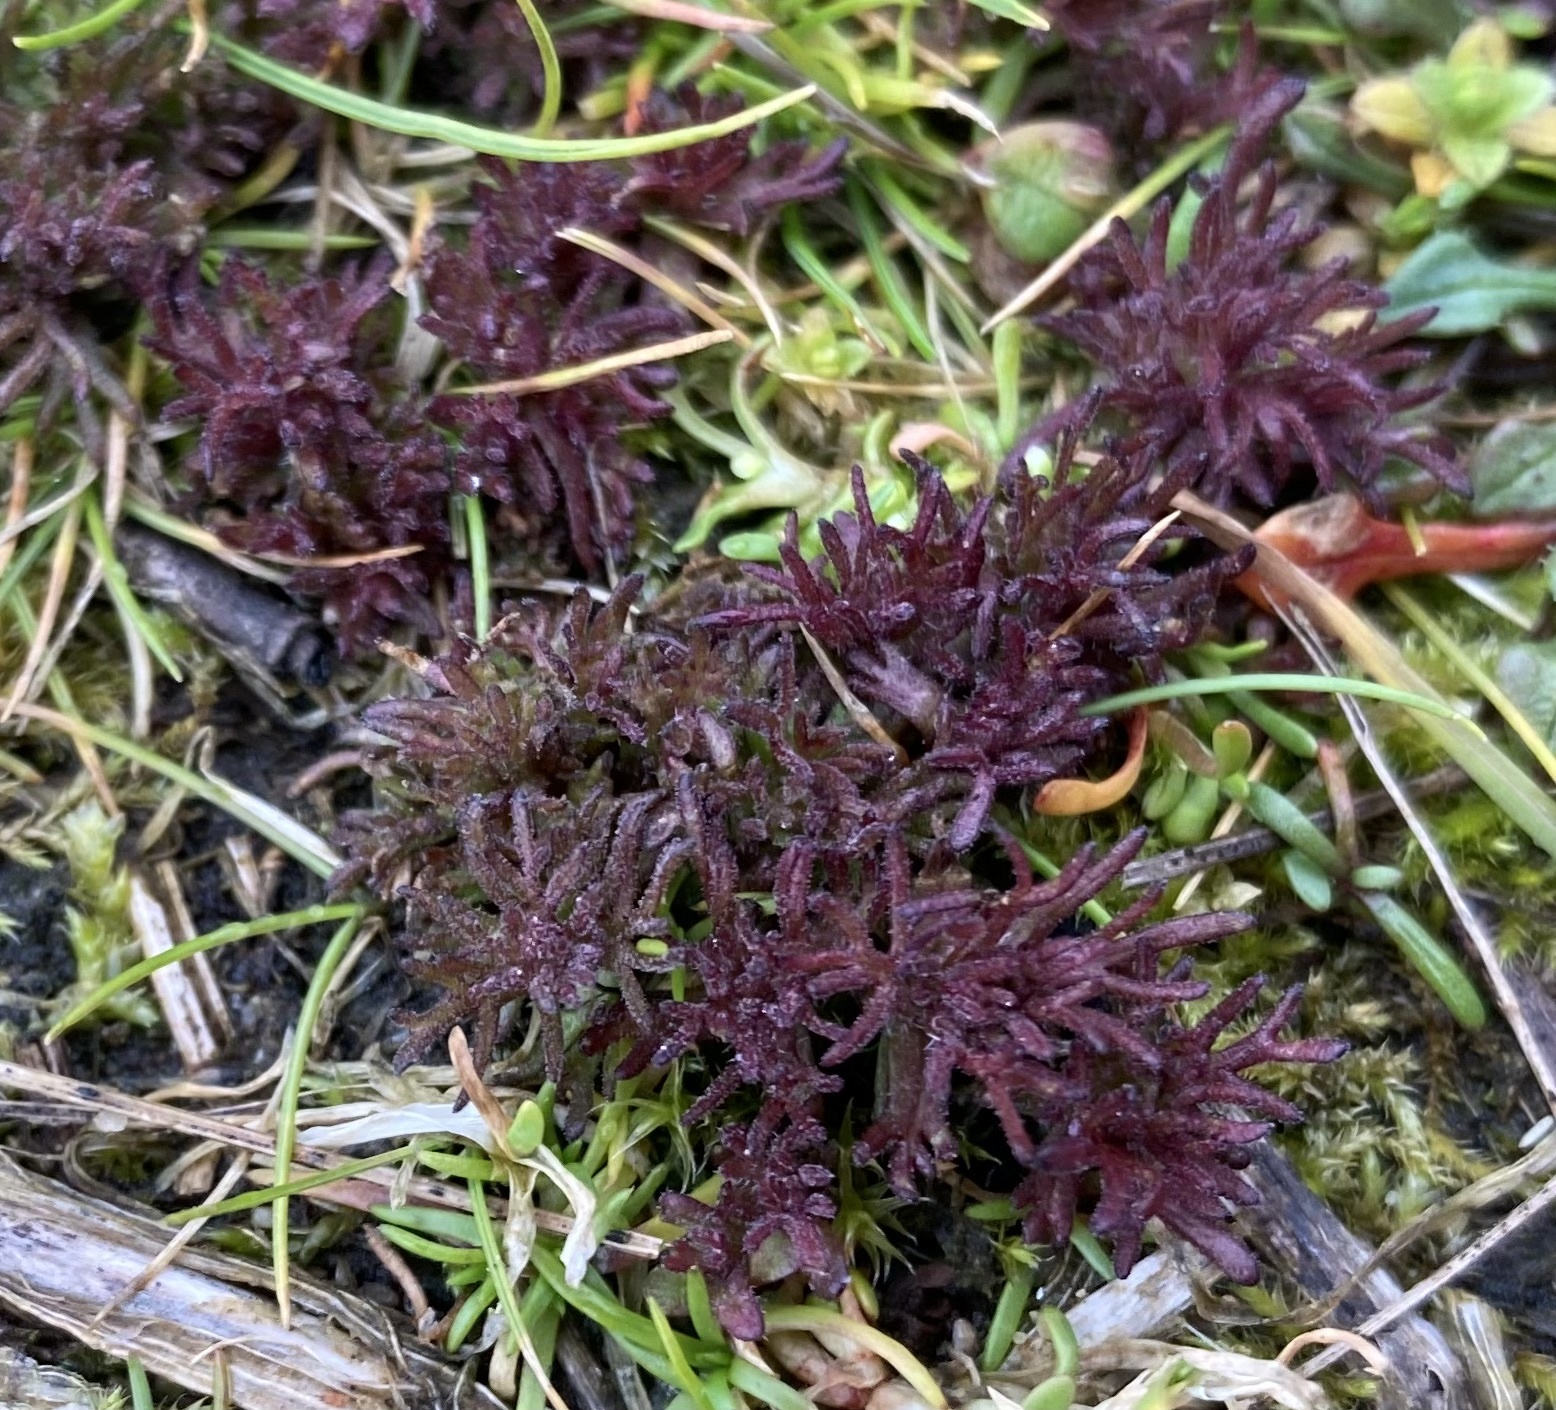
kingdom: Plantae
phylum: Tracheophyta
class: Magnoliopsida
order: Lamiales
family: Orobanchaceae
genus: Triphysaria
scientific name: Triphysaria pusilla
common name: Dwarf false owl-clover
